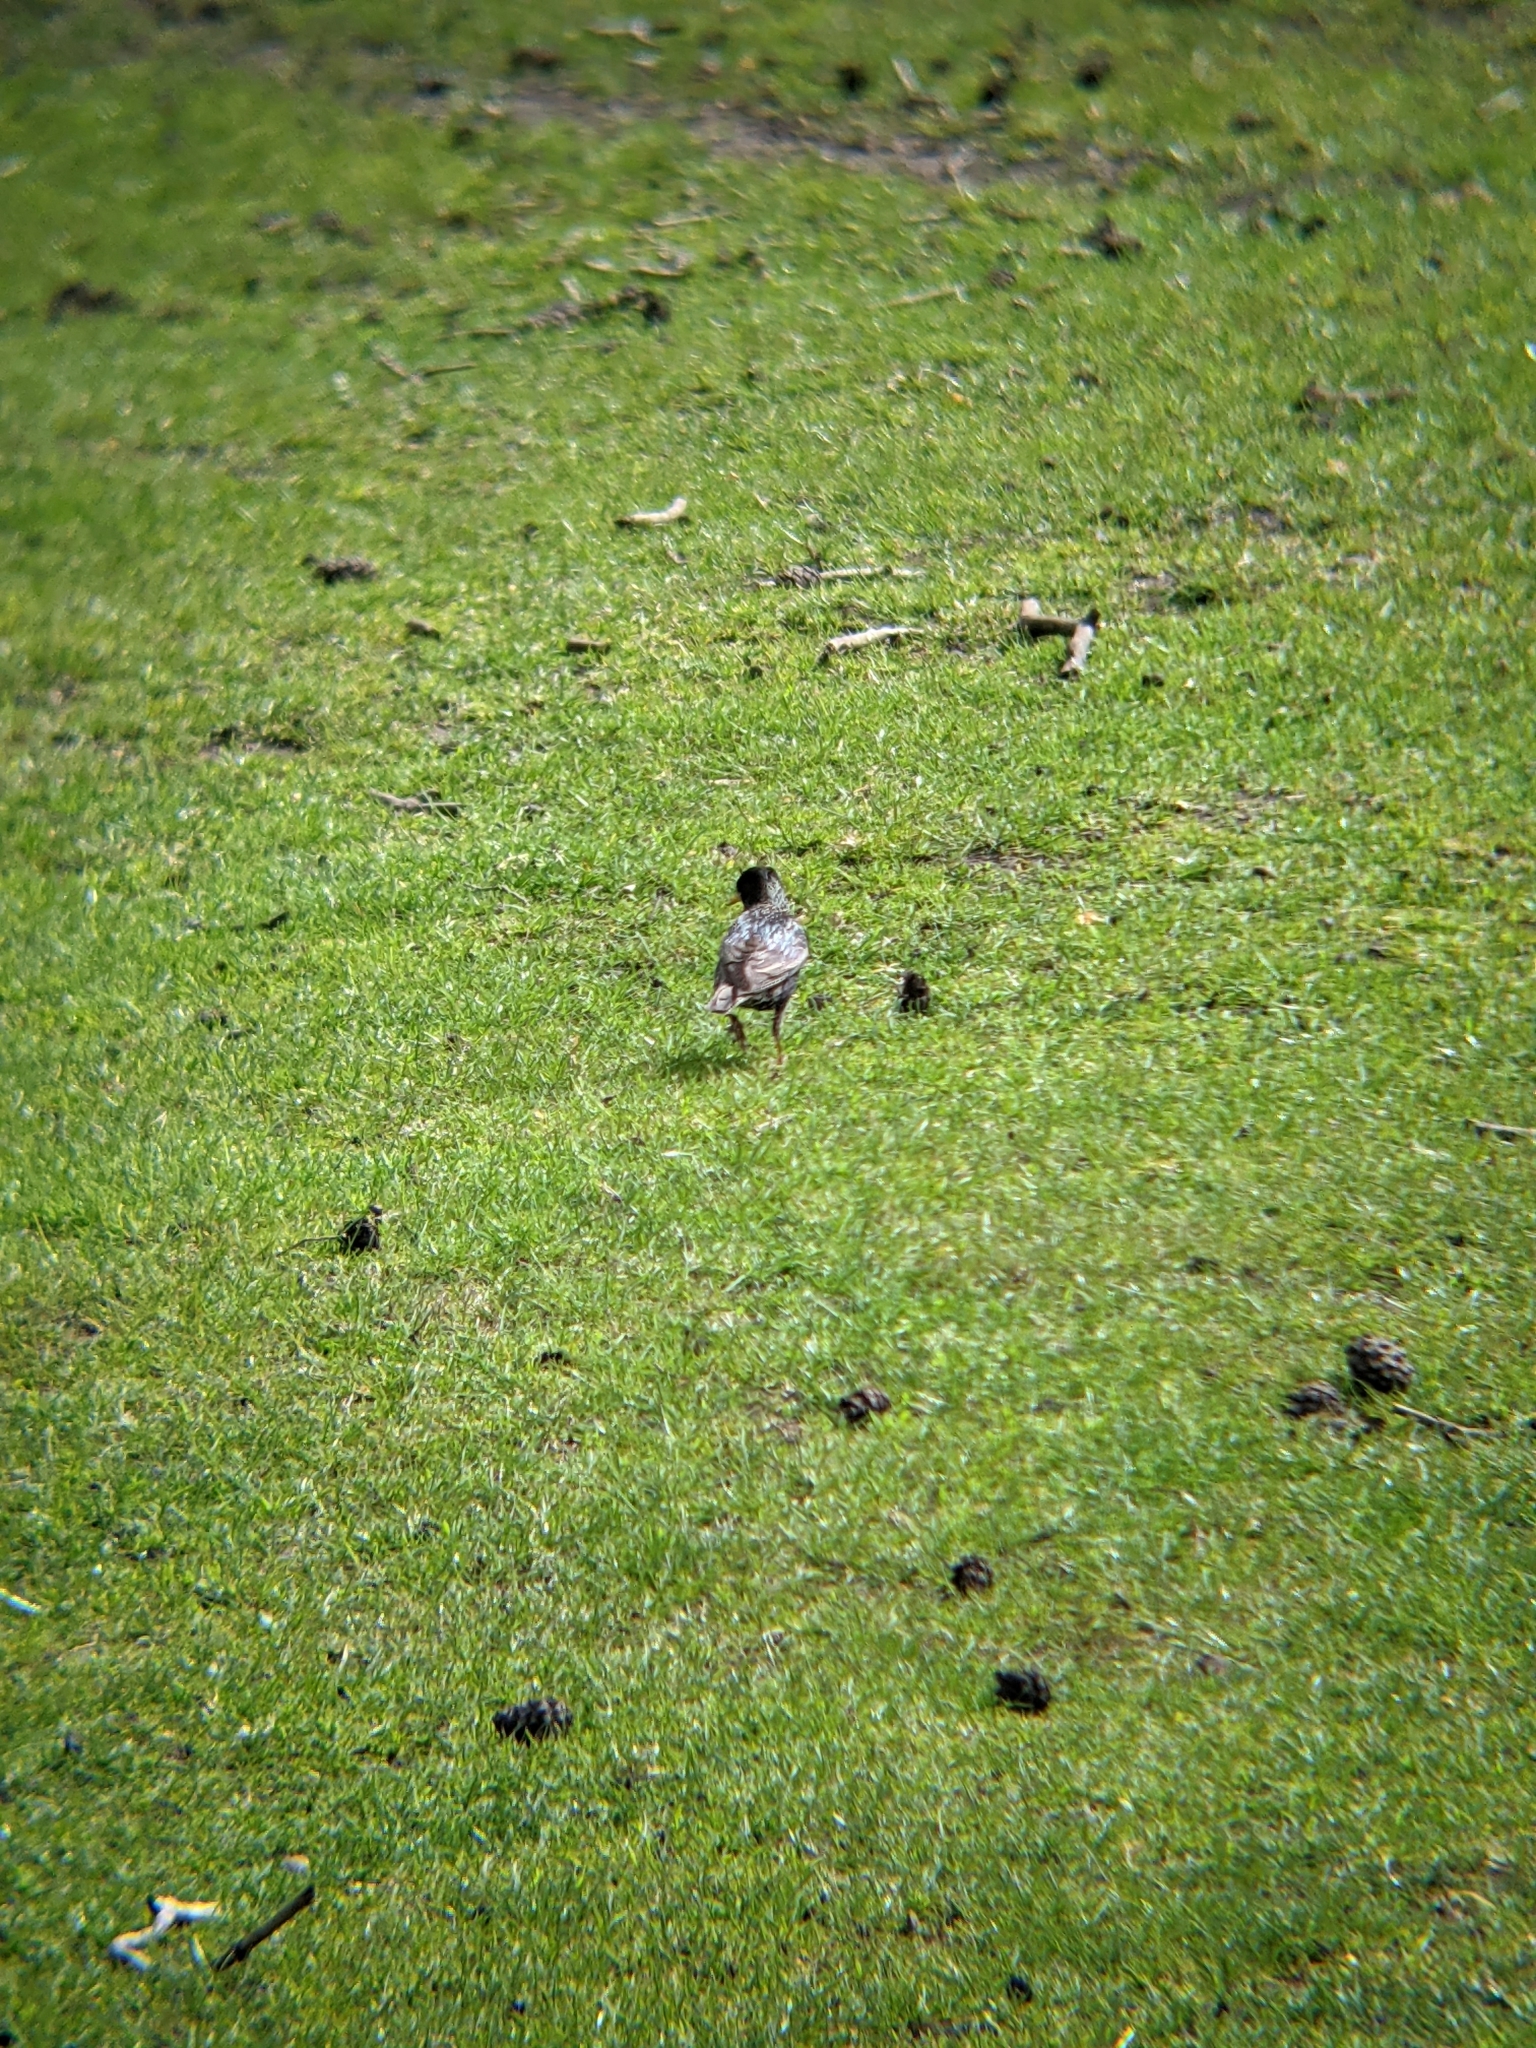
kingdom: Animalia
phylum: Chordata
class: Aves
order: Passeriformes
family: Sturnidae
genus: Sturnus
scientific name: Sturnus vulgaris
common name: Common starling
